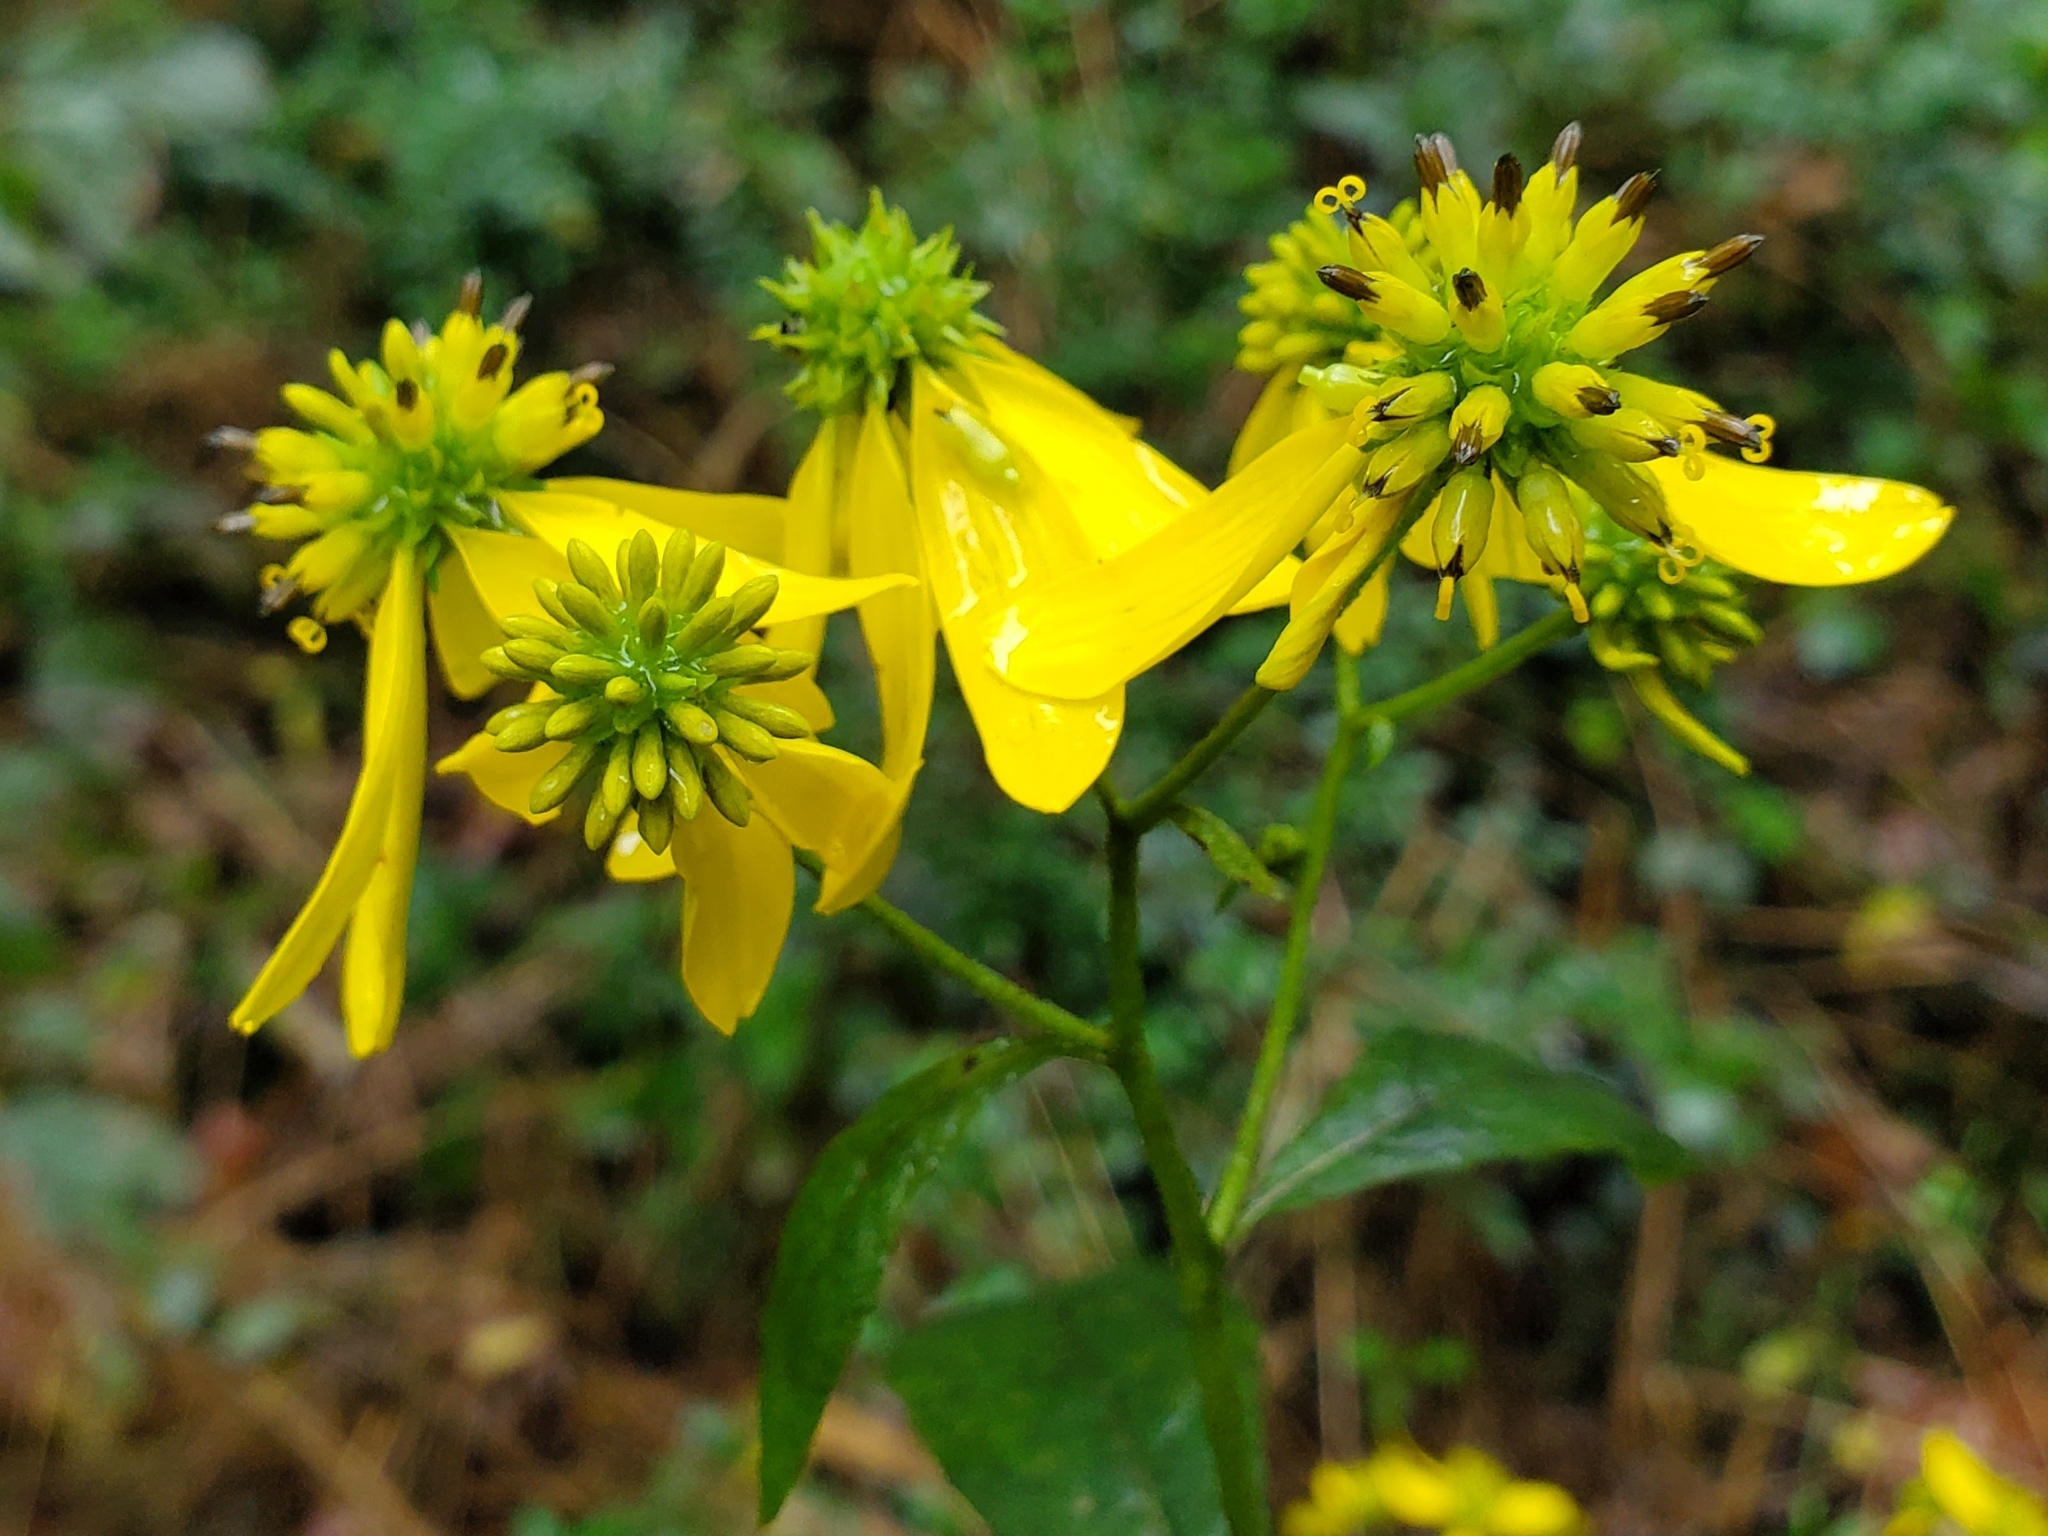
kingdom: Plantae
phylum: Tracheophyta
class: Magnoliopsida
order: Asterales
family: Asteraceae
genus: Verbesina
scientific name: Verbesina alternifolia
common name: Wingstem
